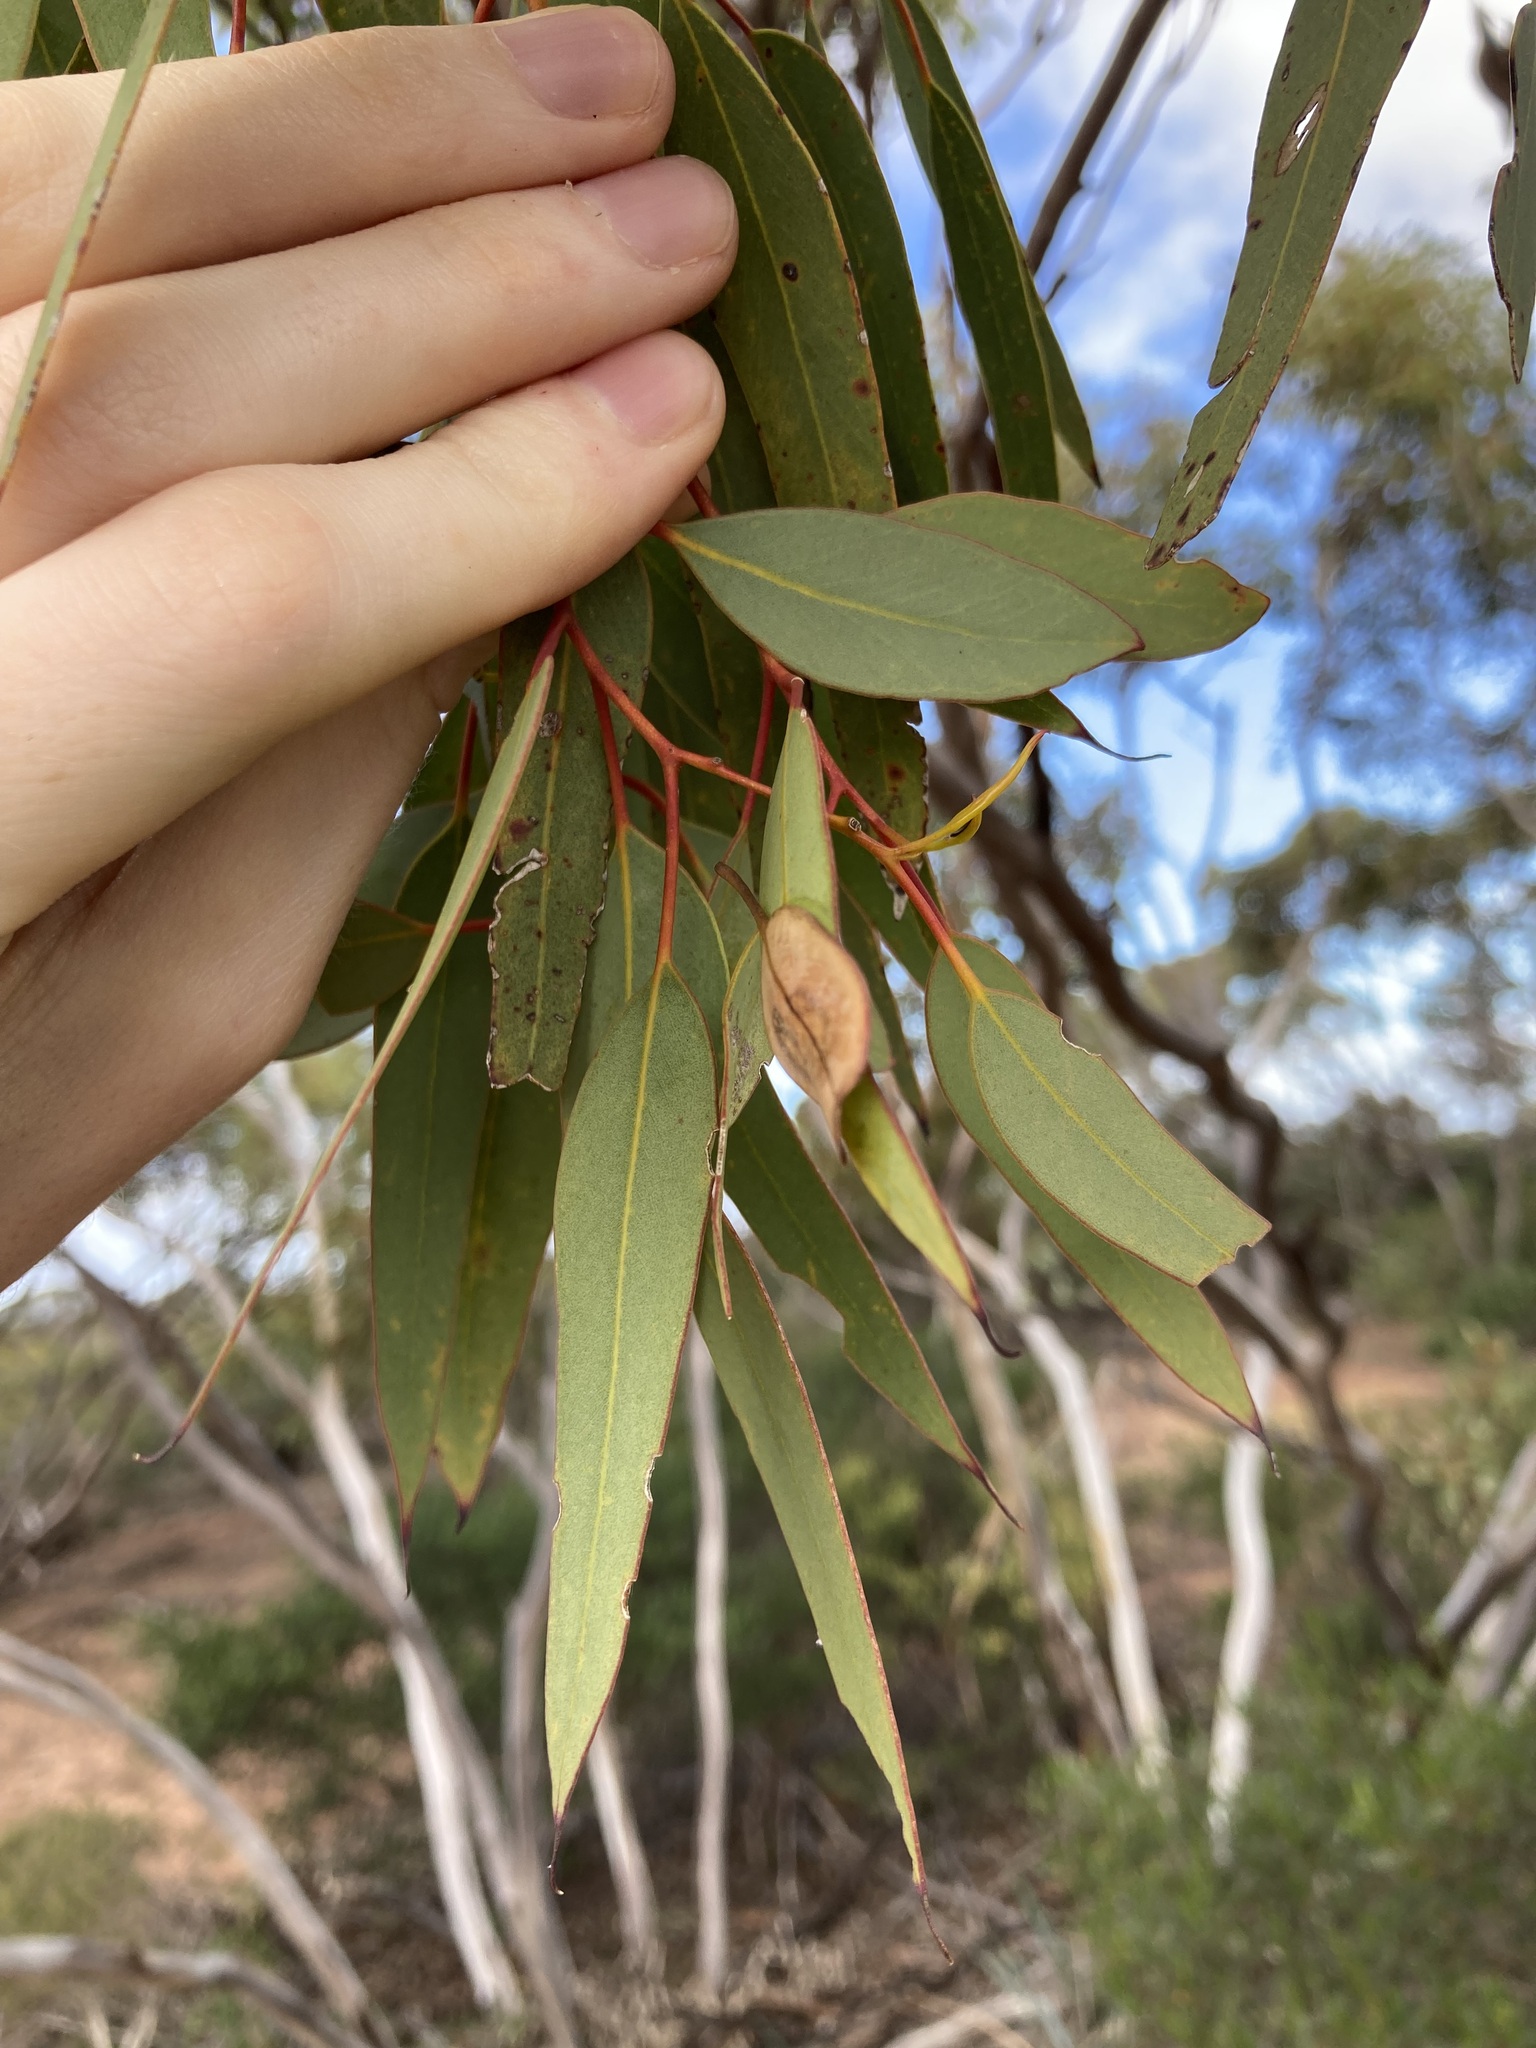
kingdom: Plantae
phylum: Tracheophyta
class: Magnoliopsida
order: Myrtales
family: Myrtaceae
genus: Eucalyptus
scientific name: Eucalyptus obtusiflora
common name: Dongara-mallee
